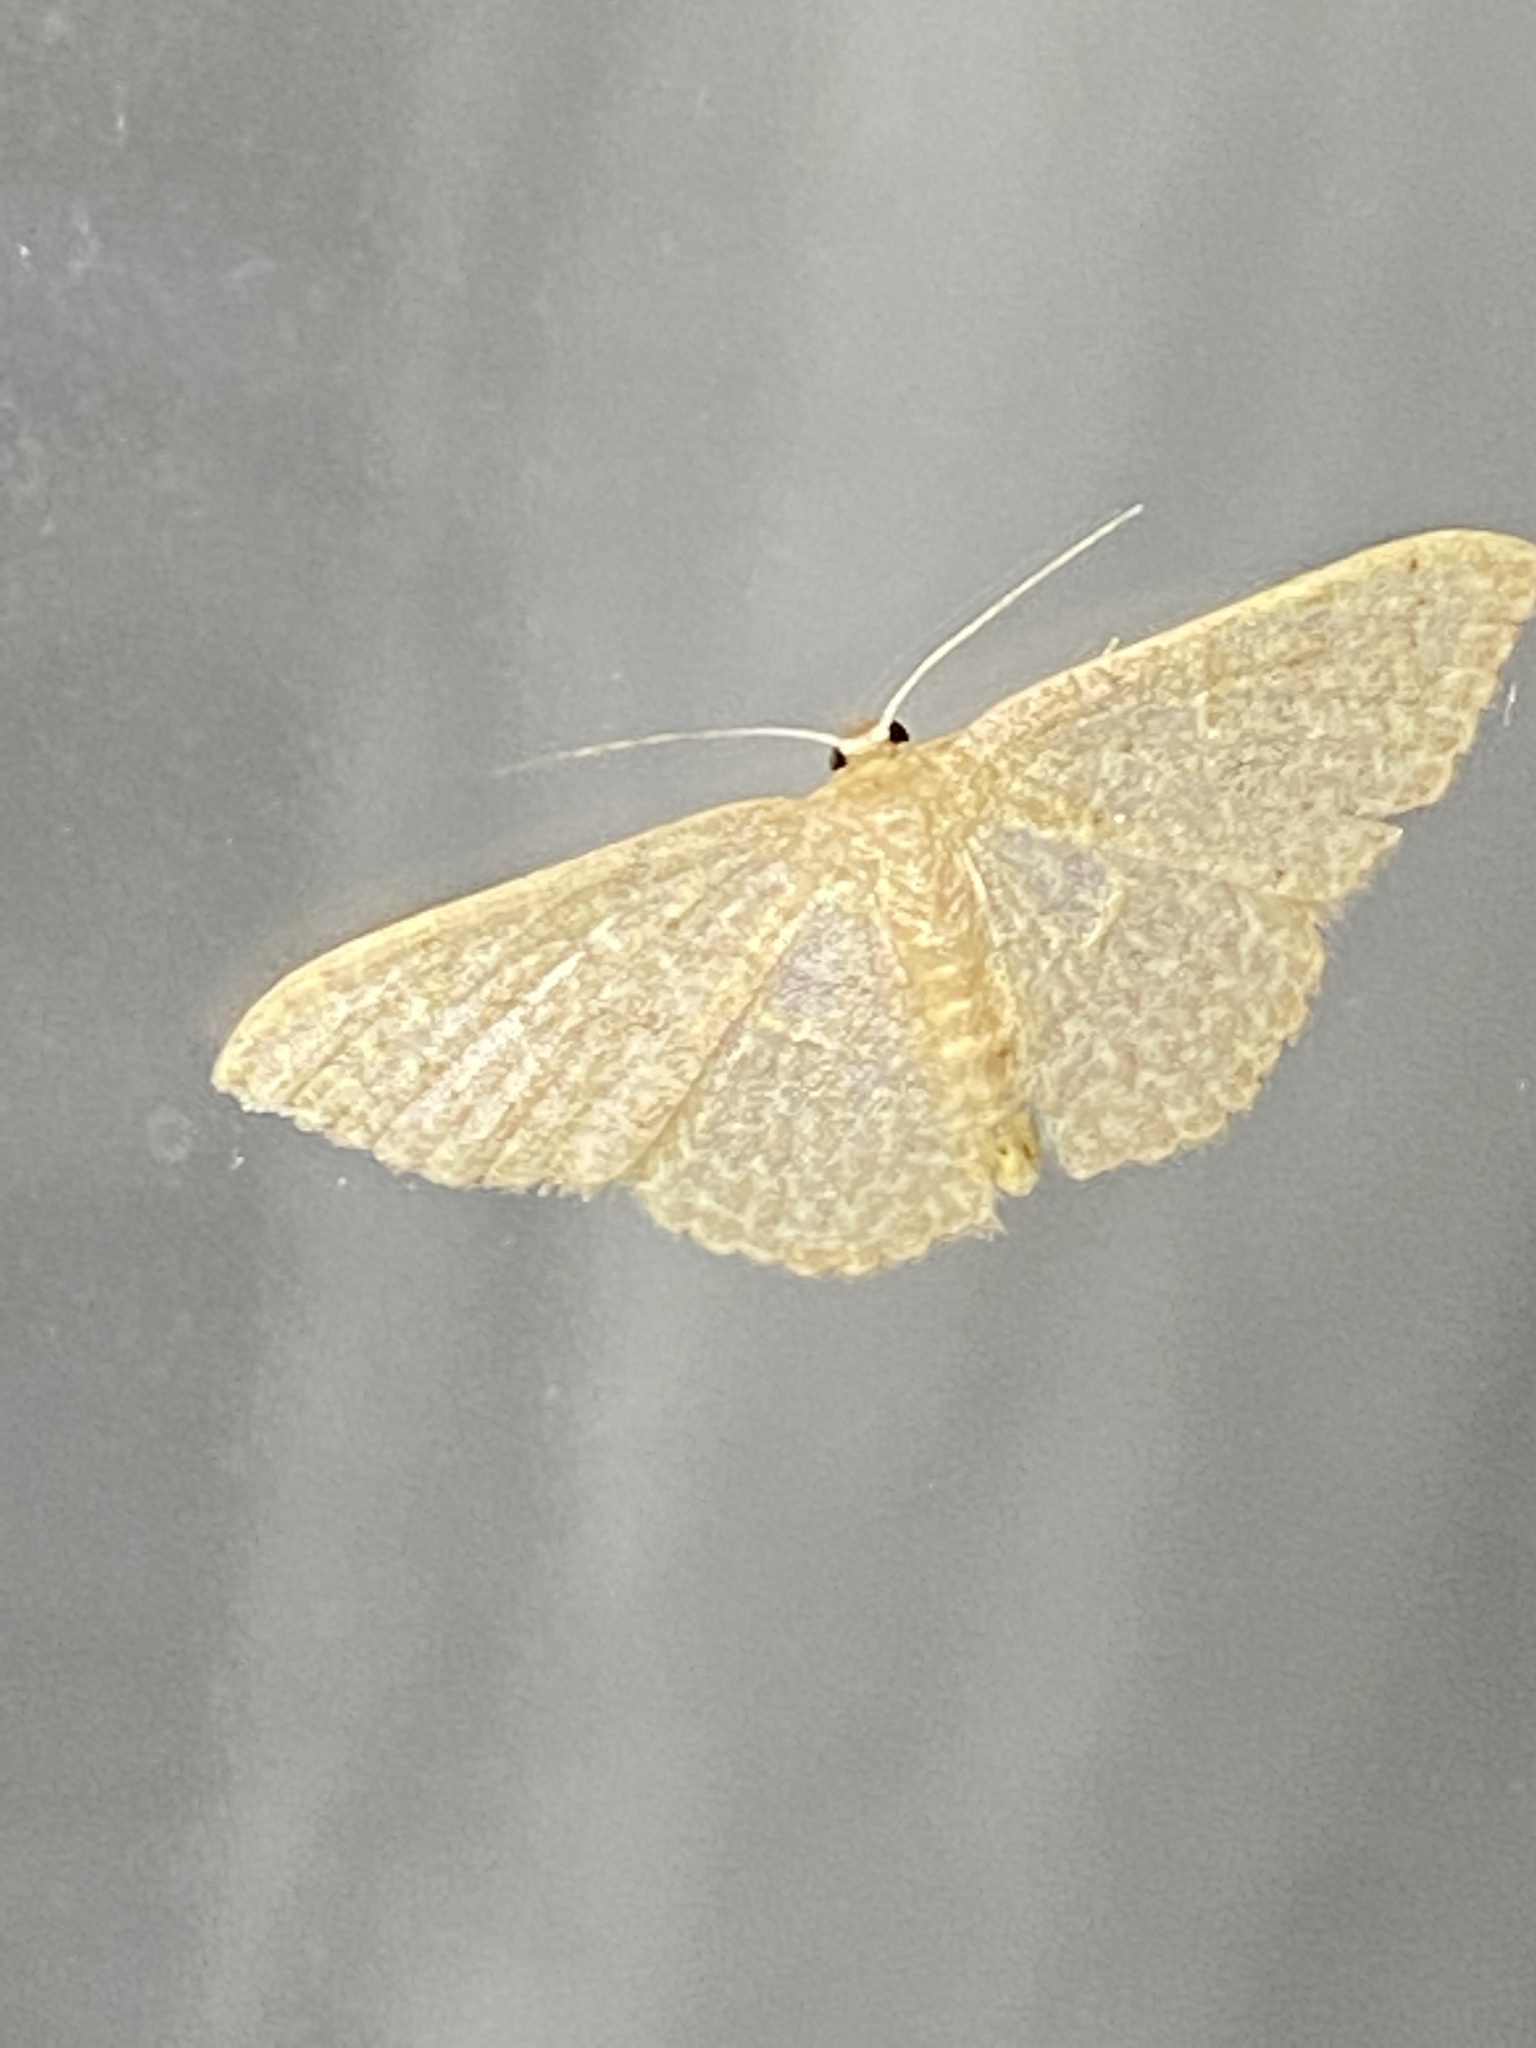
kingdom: Animalia
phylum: Arthropoda
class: Insecta
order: Lepidoptera
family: Geometridae
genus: Pleuroprucha
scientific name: Pleuroprucha insulsaria
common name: Common tan wave
